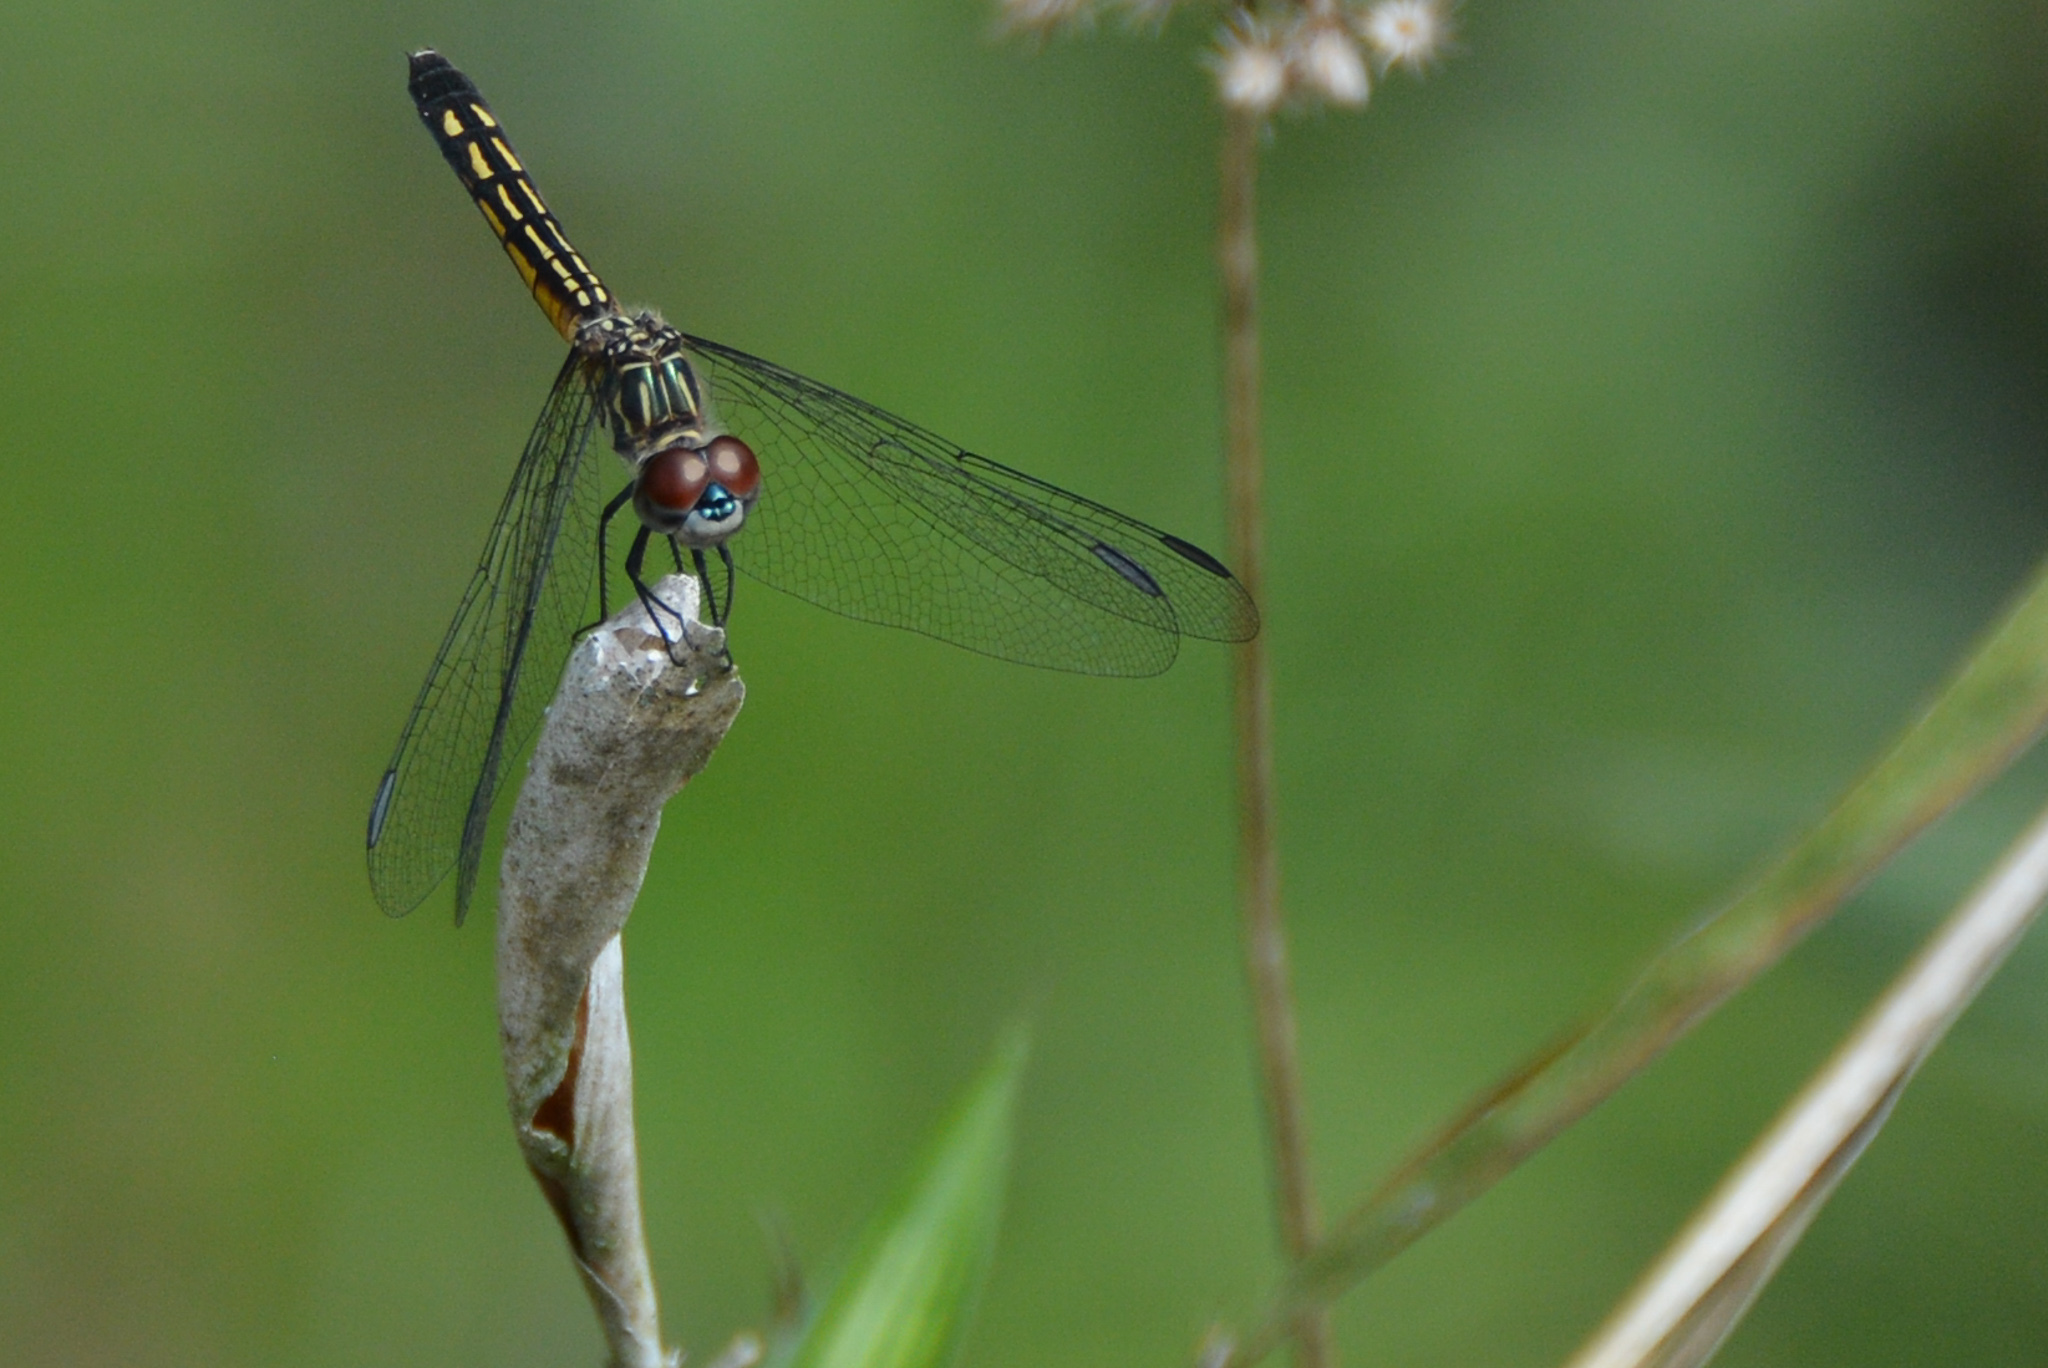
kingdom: Animalia
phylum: Arthropoda
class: Insecta
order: Odonata
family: Libellulidae
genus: Pachydiplax
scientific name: Pachydiplax longipennis
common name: Blue dasher
